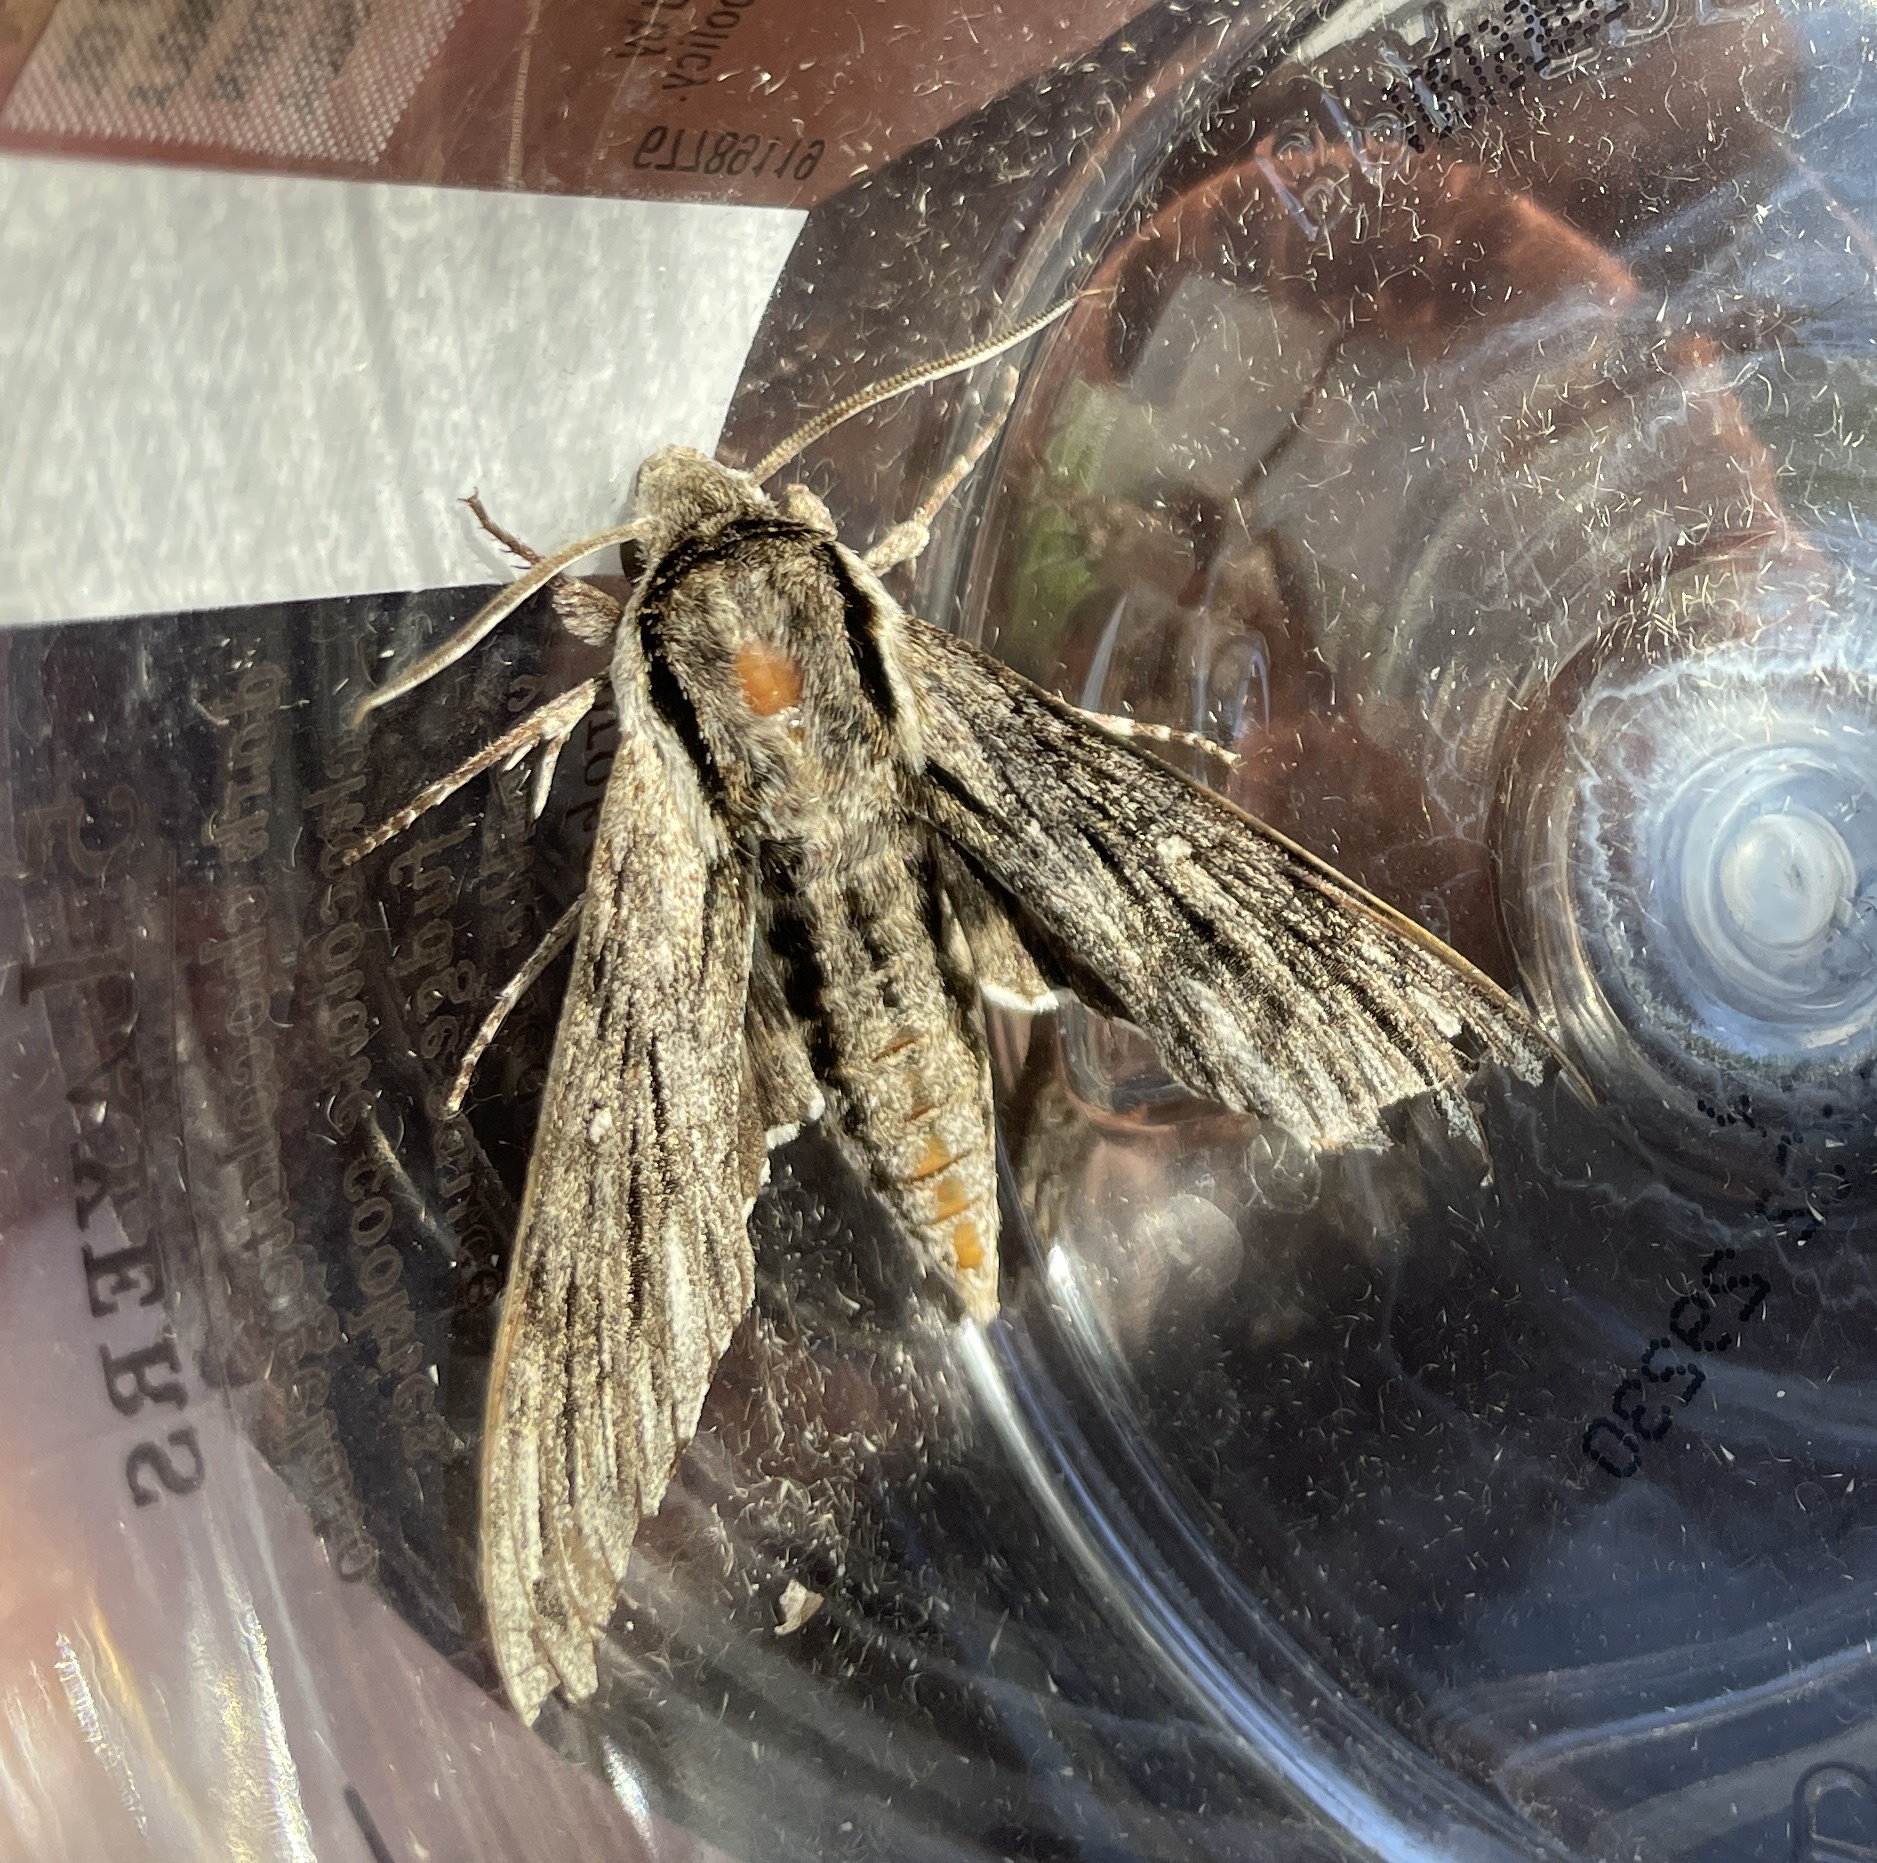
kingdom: Animalia
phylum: Arthropoda
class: Insecta
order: Lepidoptera
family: Sphingidae
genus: Paratrea
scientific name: Paratrea plebeja
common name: Plebian sphinx
